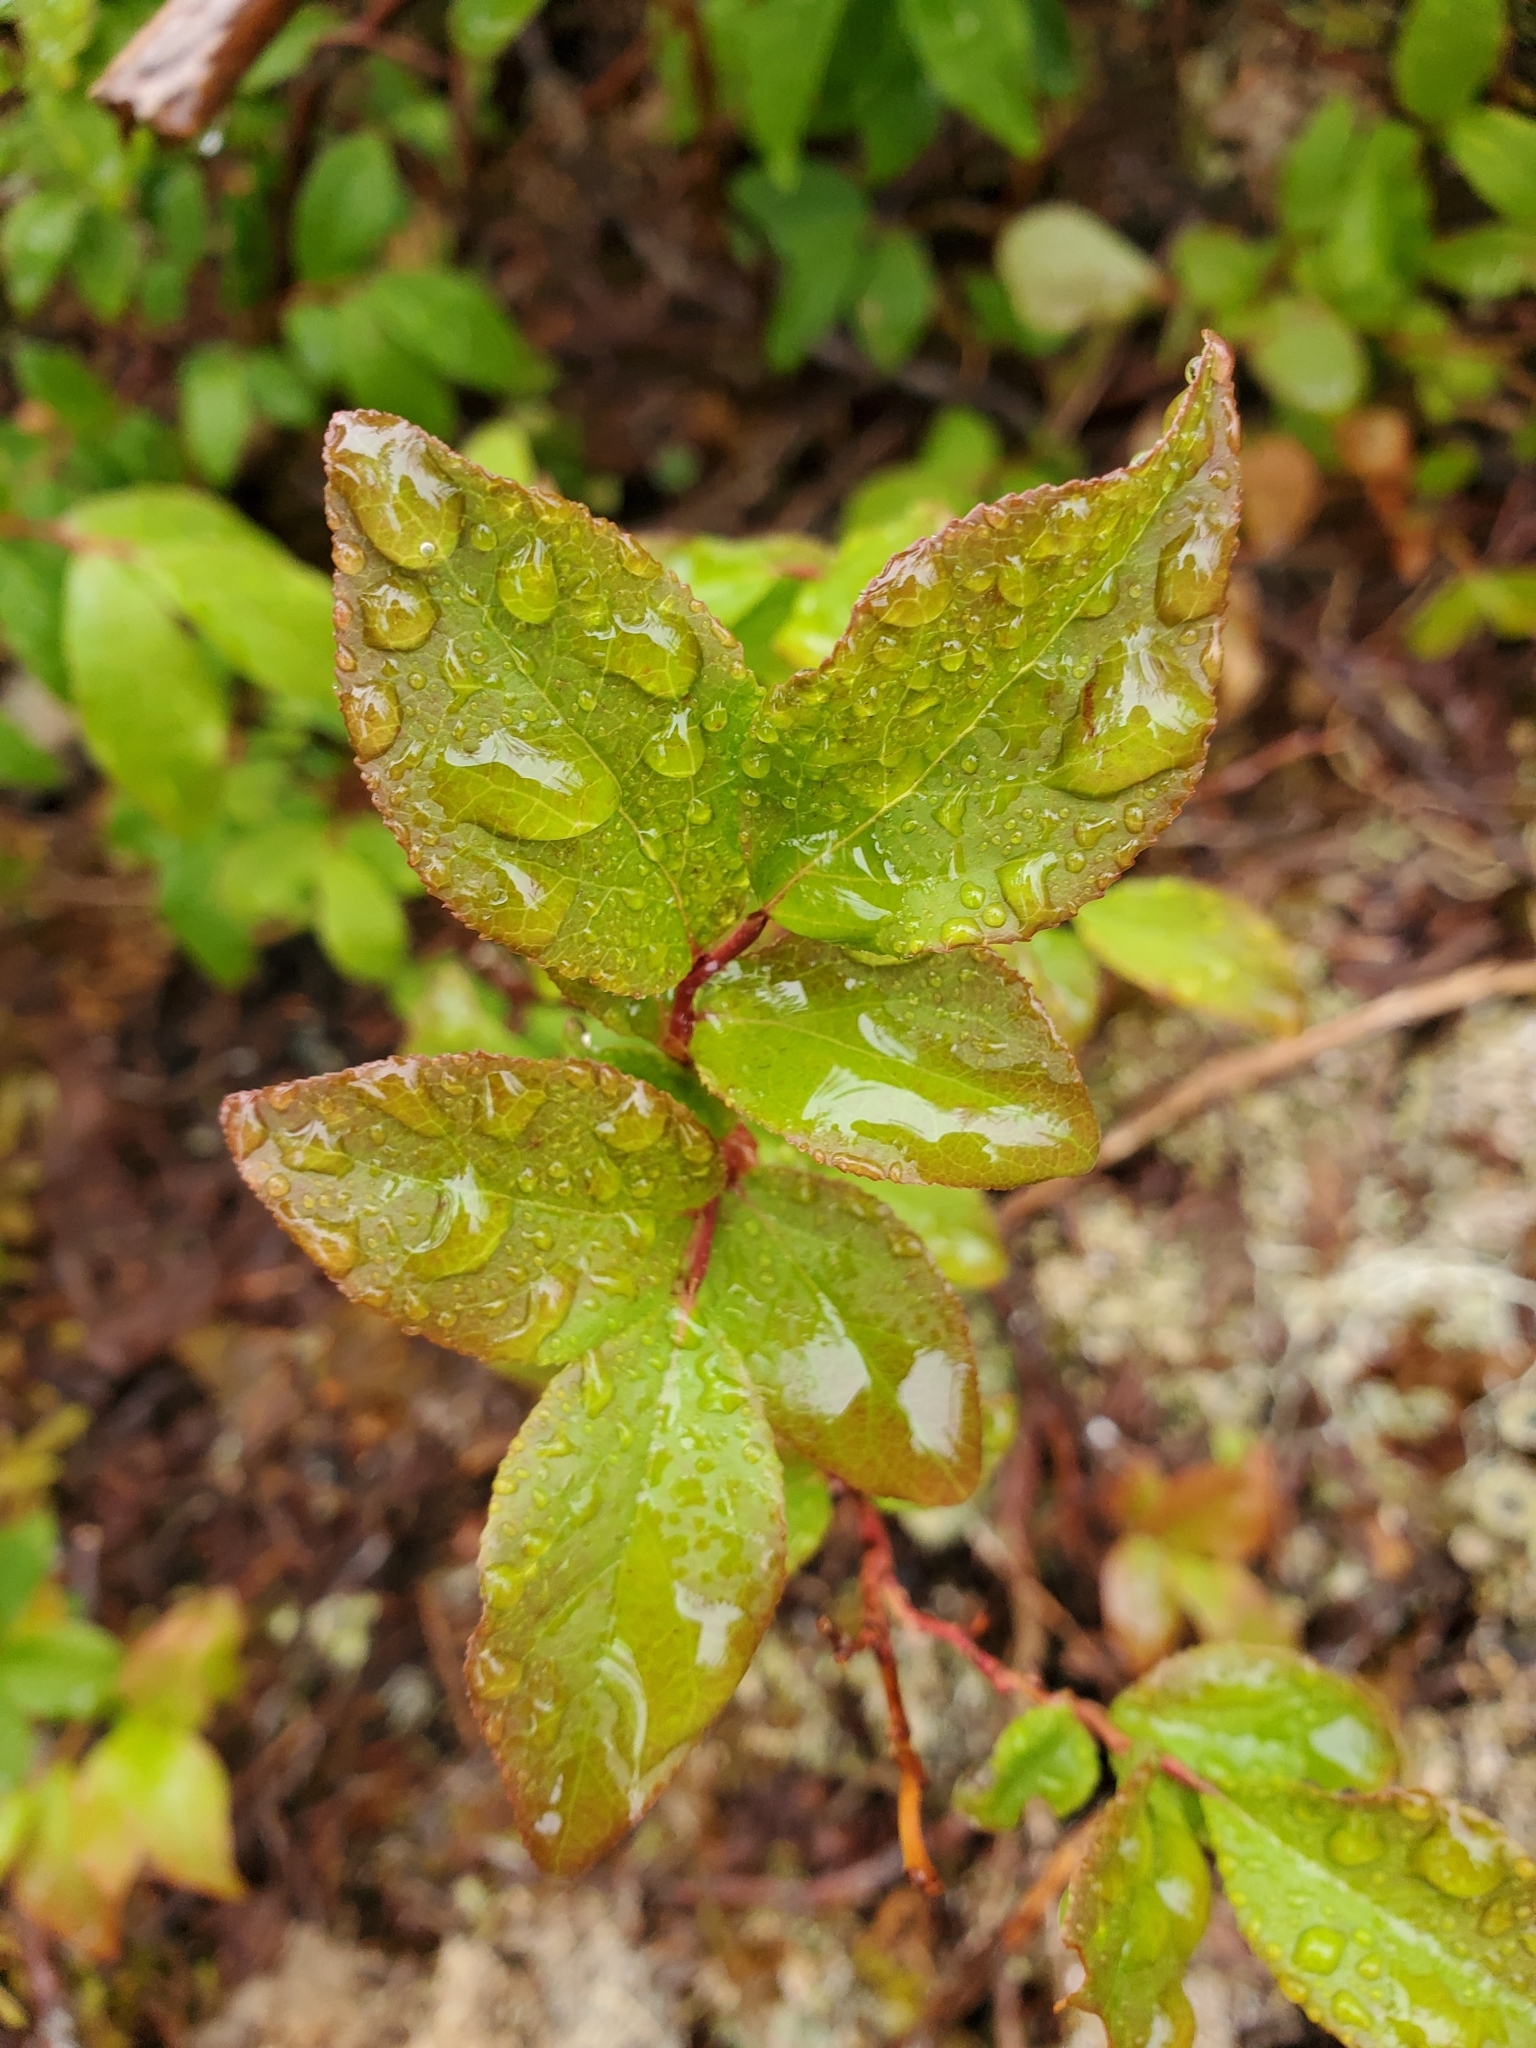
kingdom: Plantae
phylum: Tracheophyta
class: Magnoliopsida
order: Ericales
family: Ericaceae
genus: Vaccinium
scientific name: Vaccinium membranaceum
